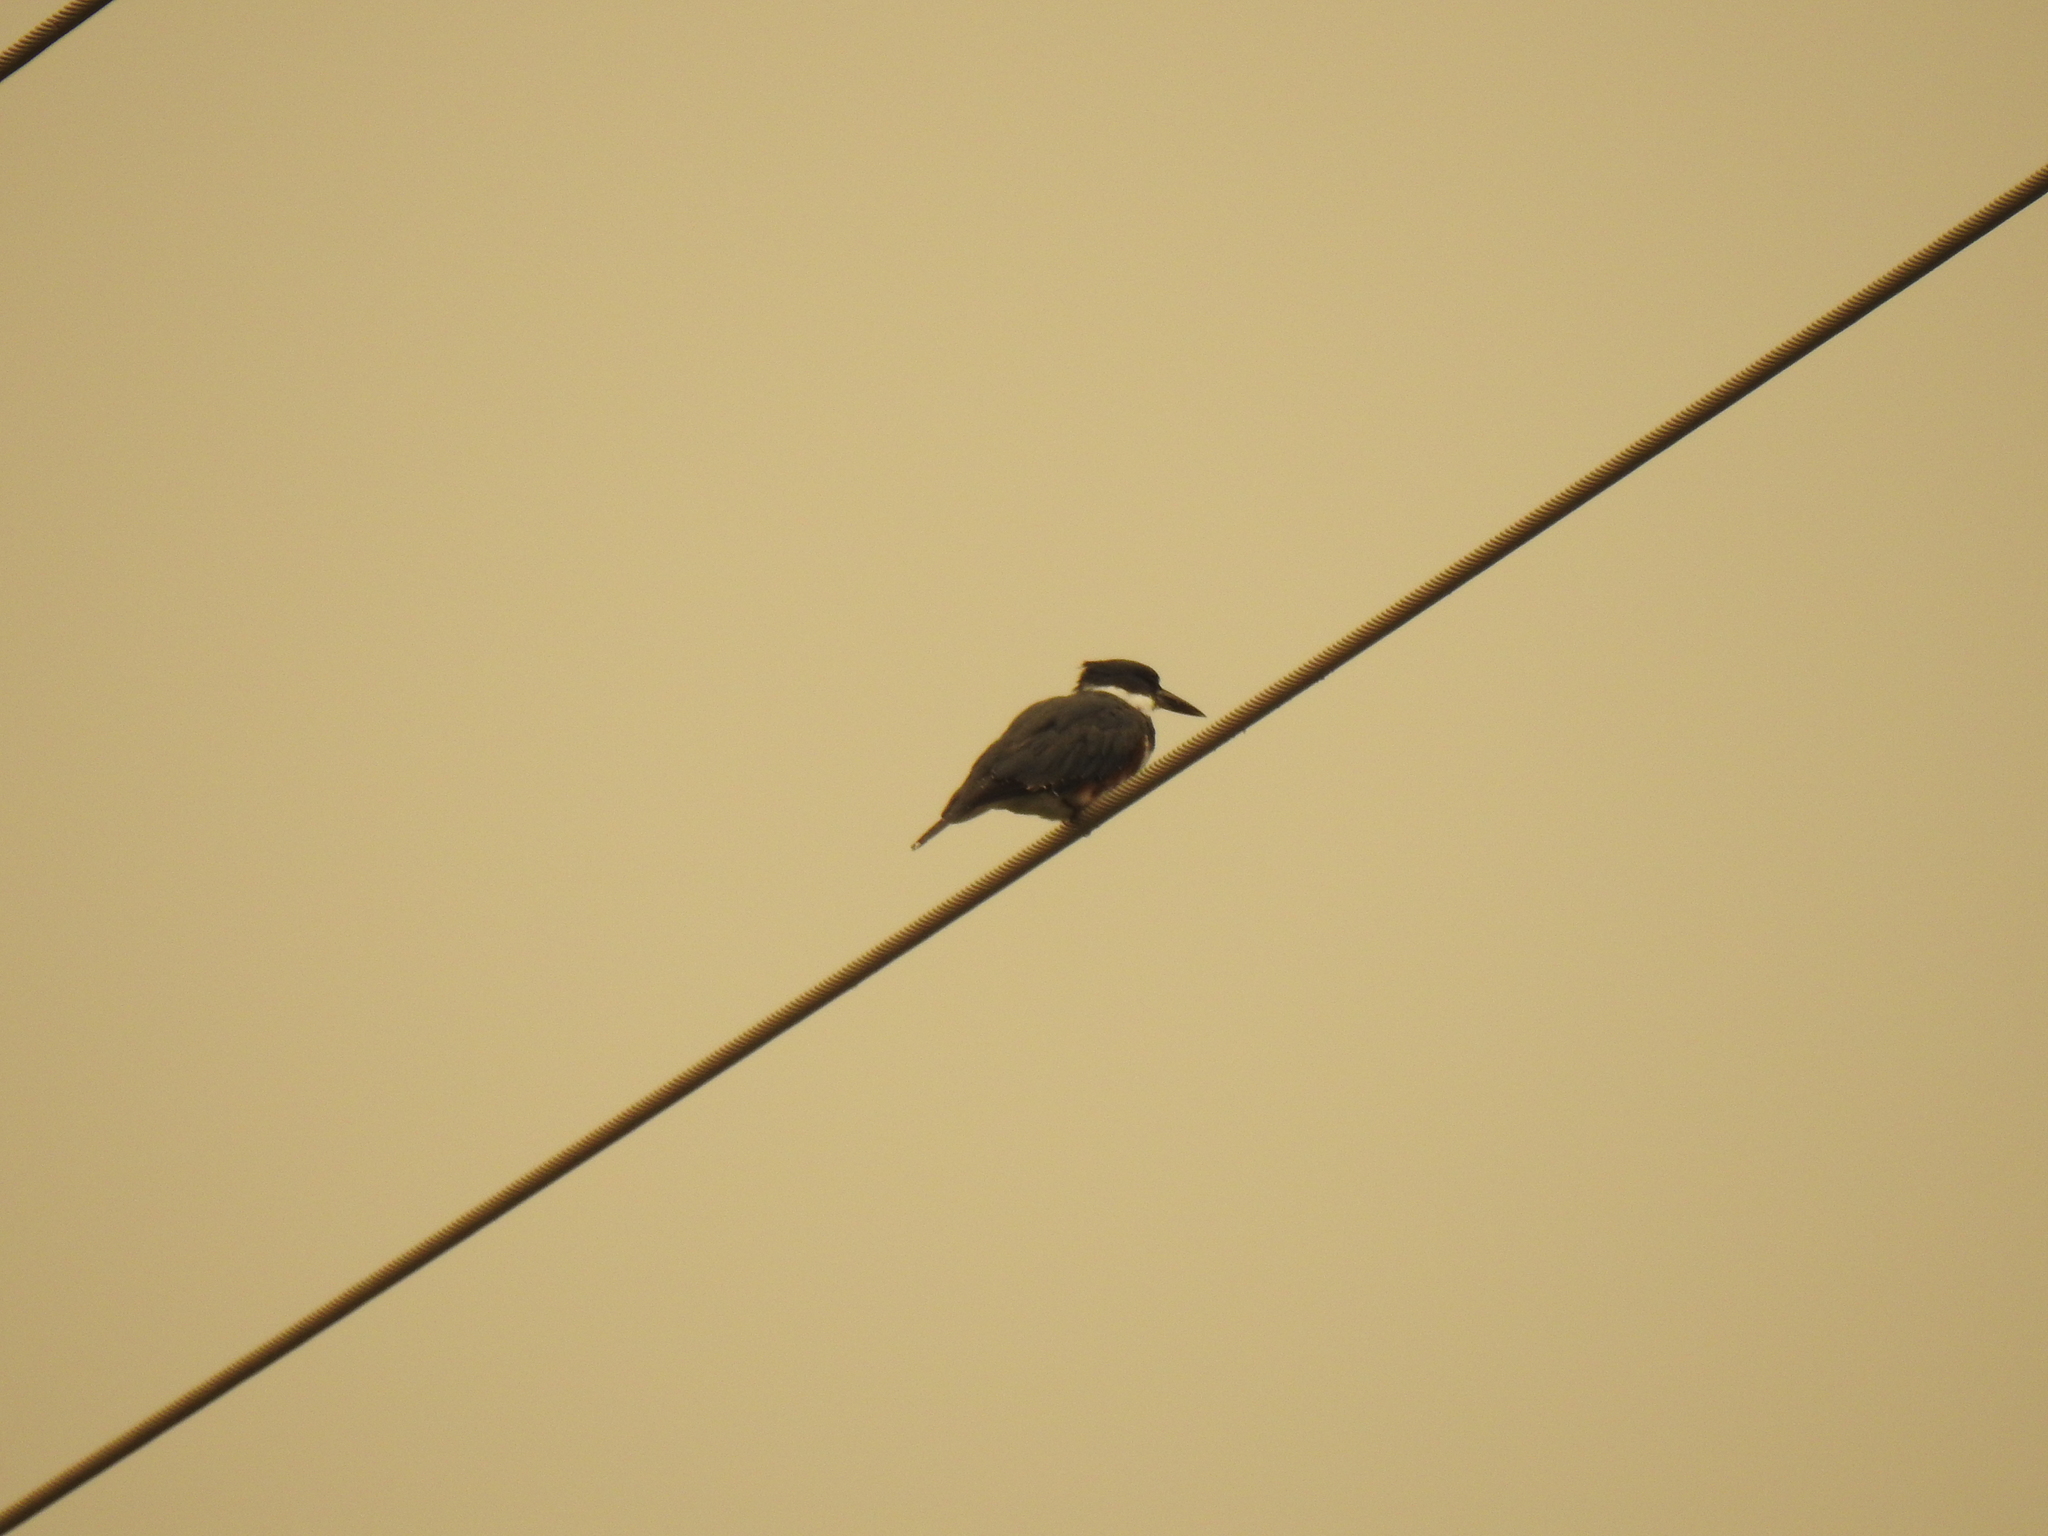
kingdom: Animalia
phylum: Chordata
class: Aves
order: Coraciiformes
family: Alcedinidae
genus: Megaceryle
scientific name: Megaceryle alcyon
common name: Belted kingfisher
